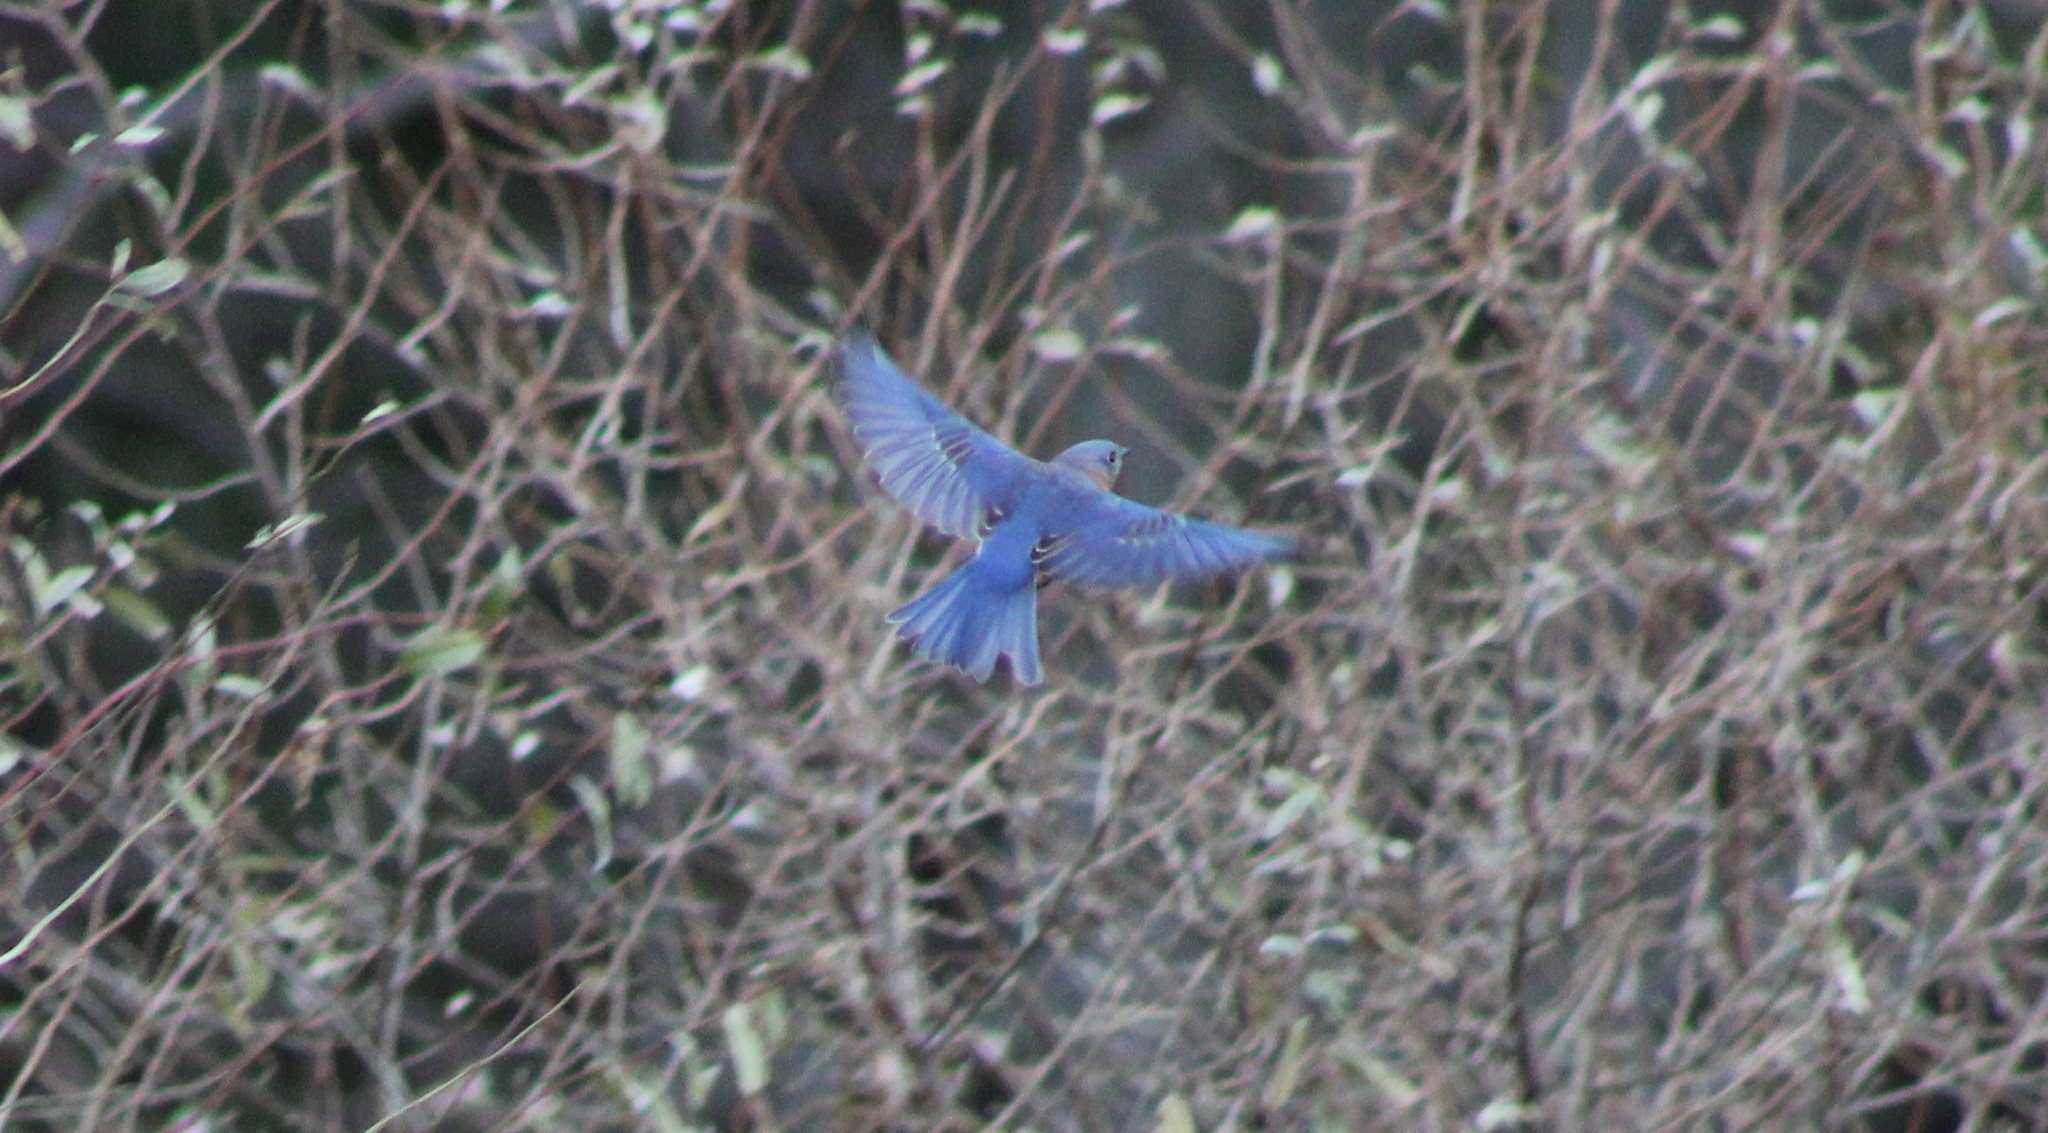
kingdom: Animalia
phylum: Chordata
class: Aves
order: Passeriformes
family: Turdidae
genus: Sialia
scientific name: Sialia sialis
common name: Eastern bluebird
